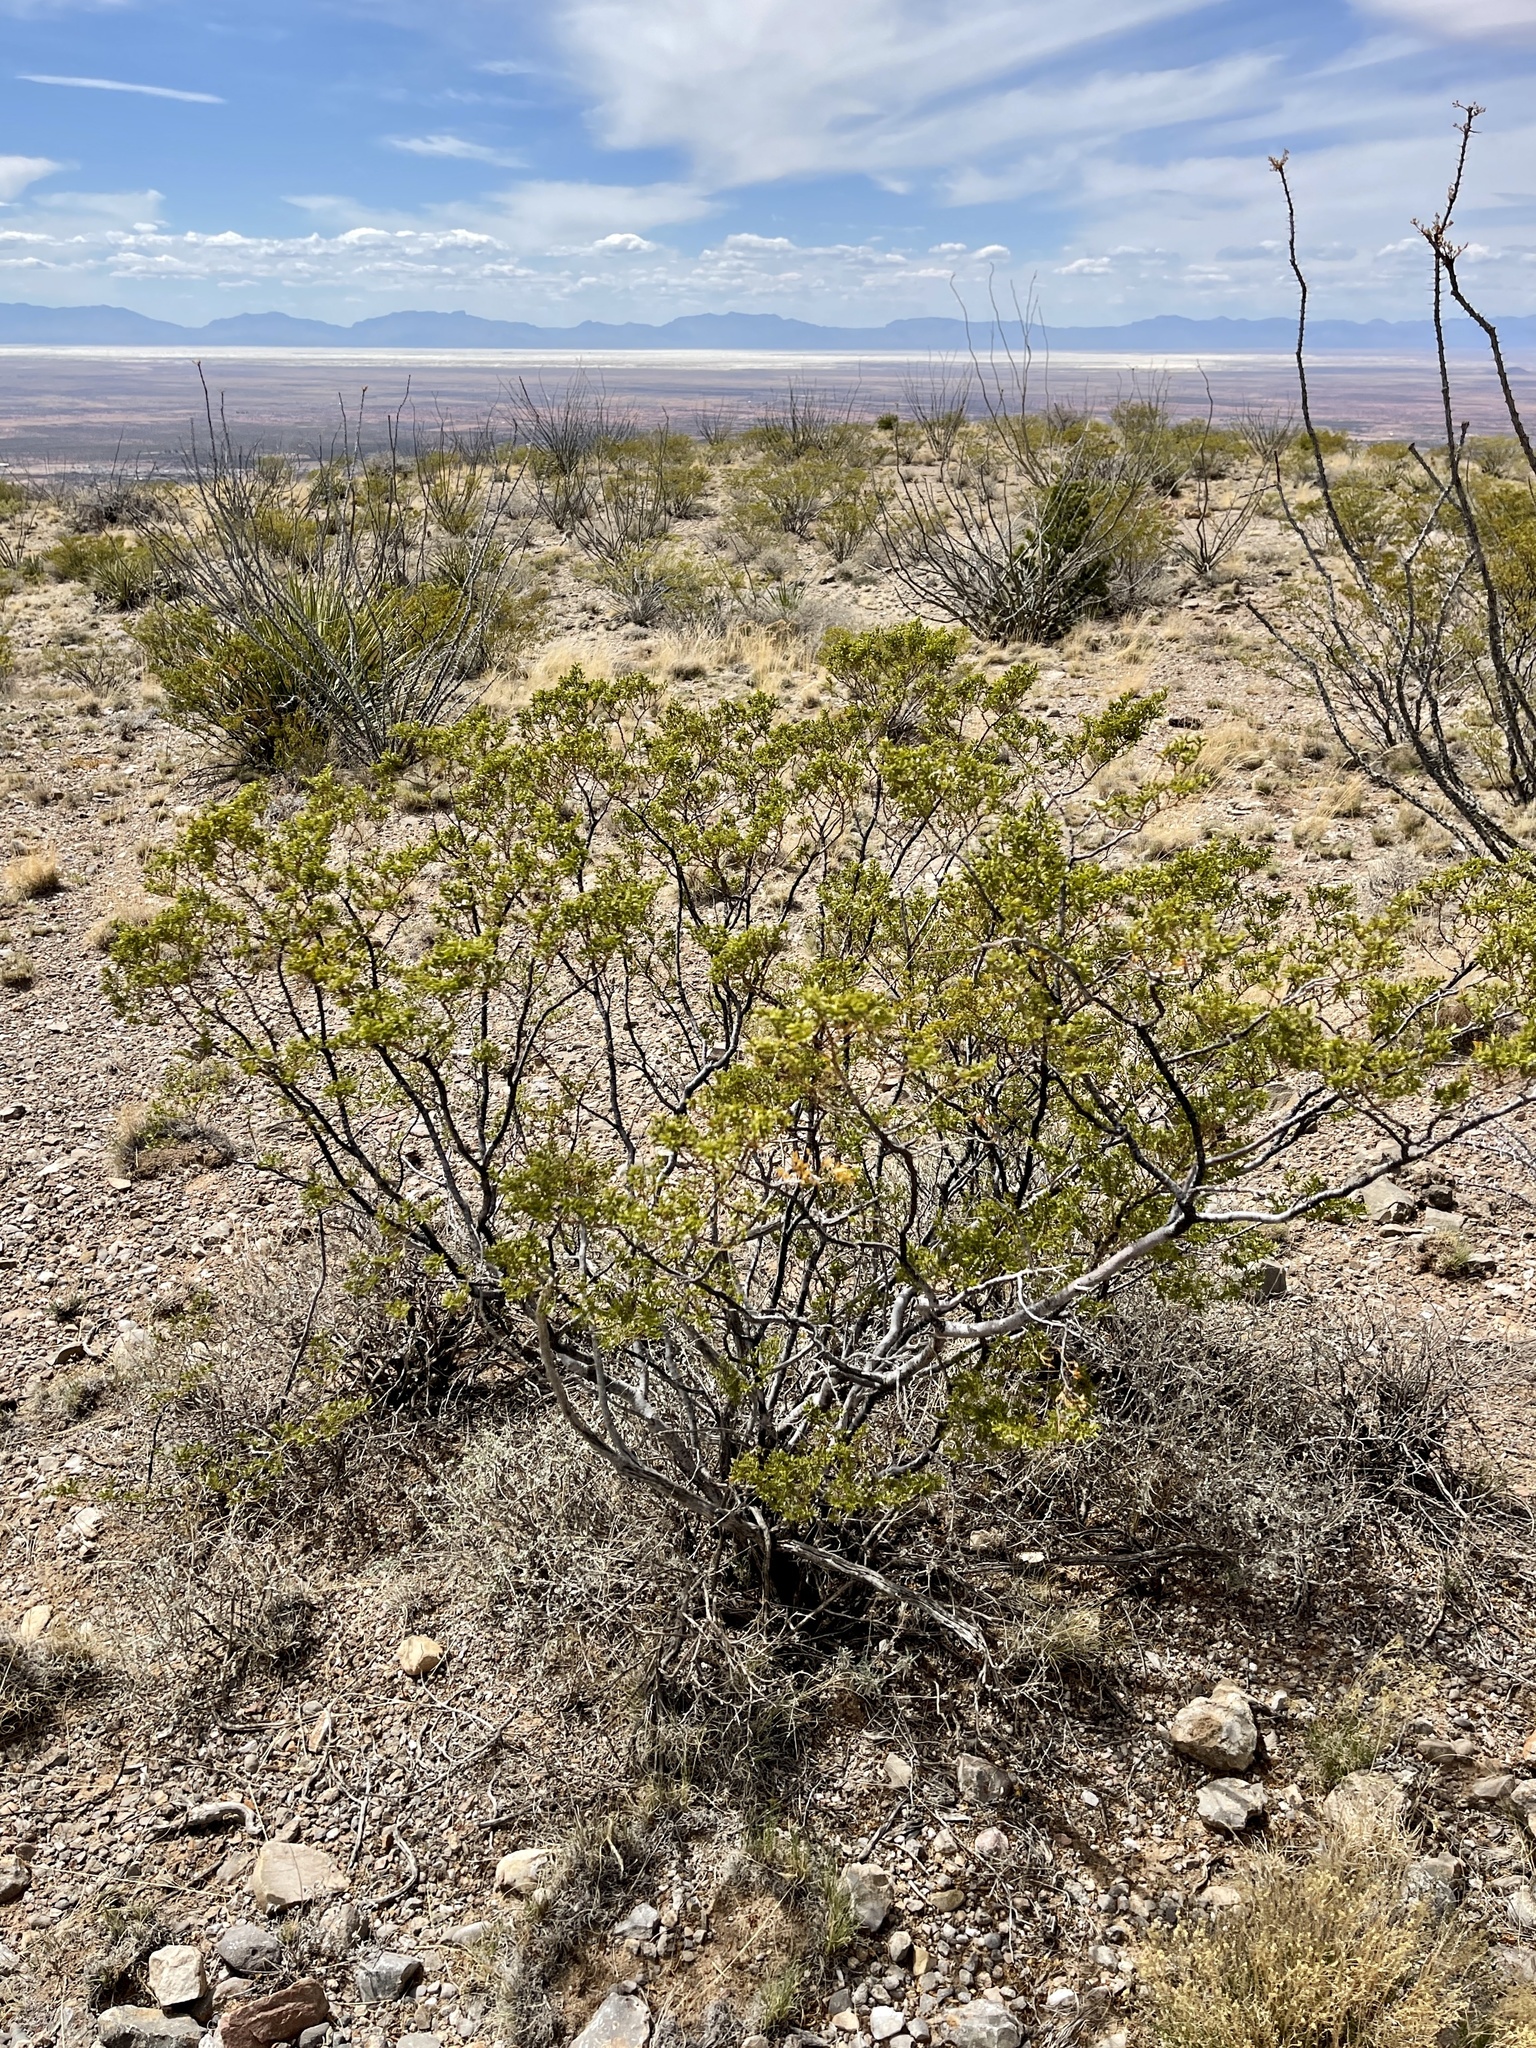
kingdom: Plantae
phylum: Tracheophyta
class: Magnoliopsida
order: Zygophyllales
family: Zygophyllaceae
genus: Larrea
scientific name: Larrea tridentata
